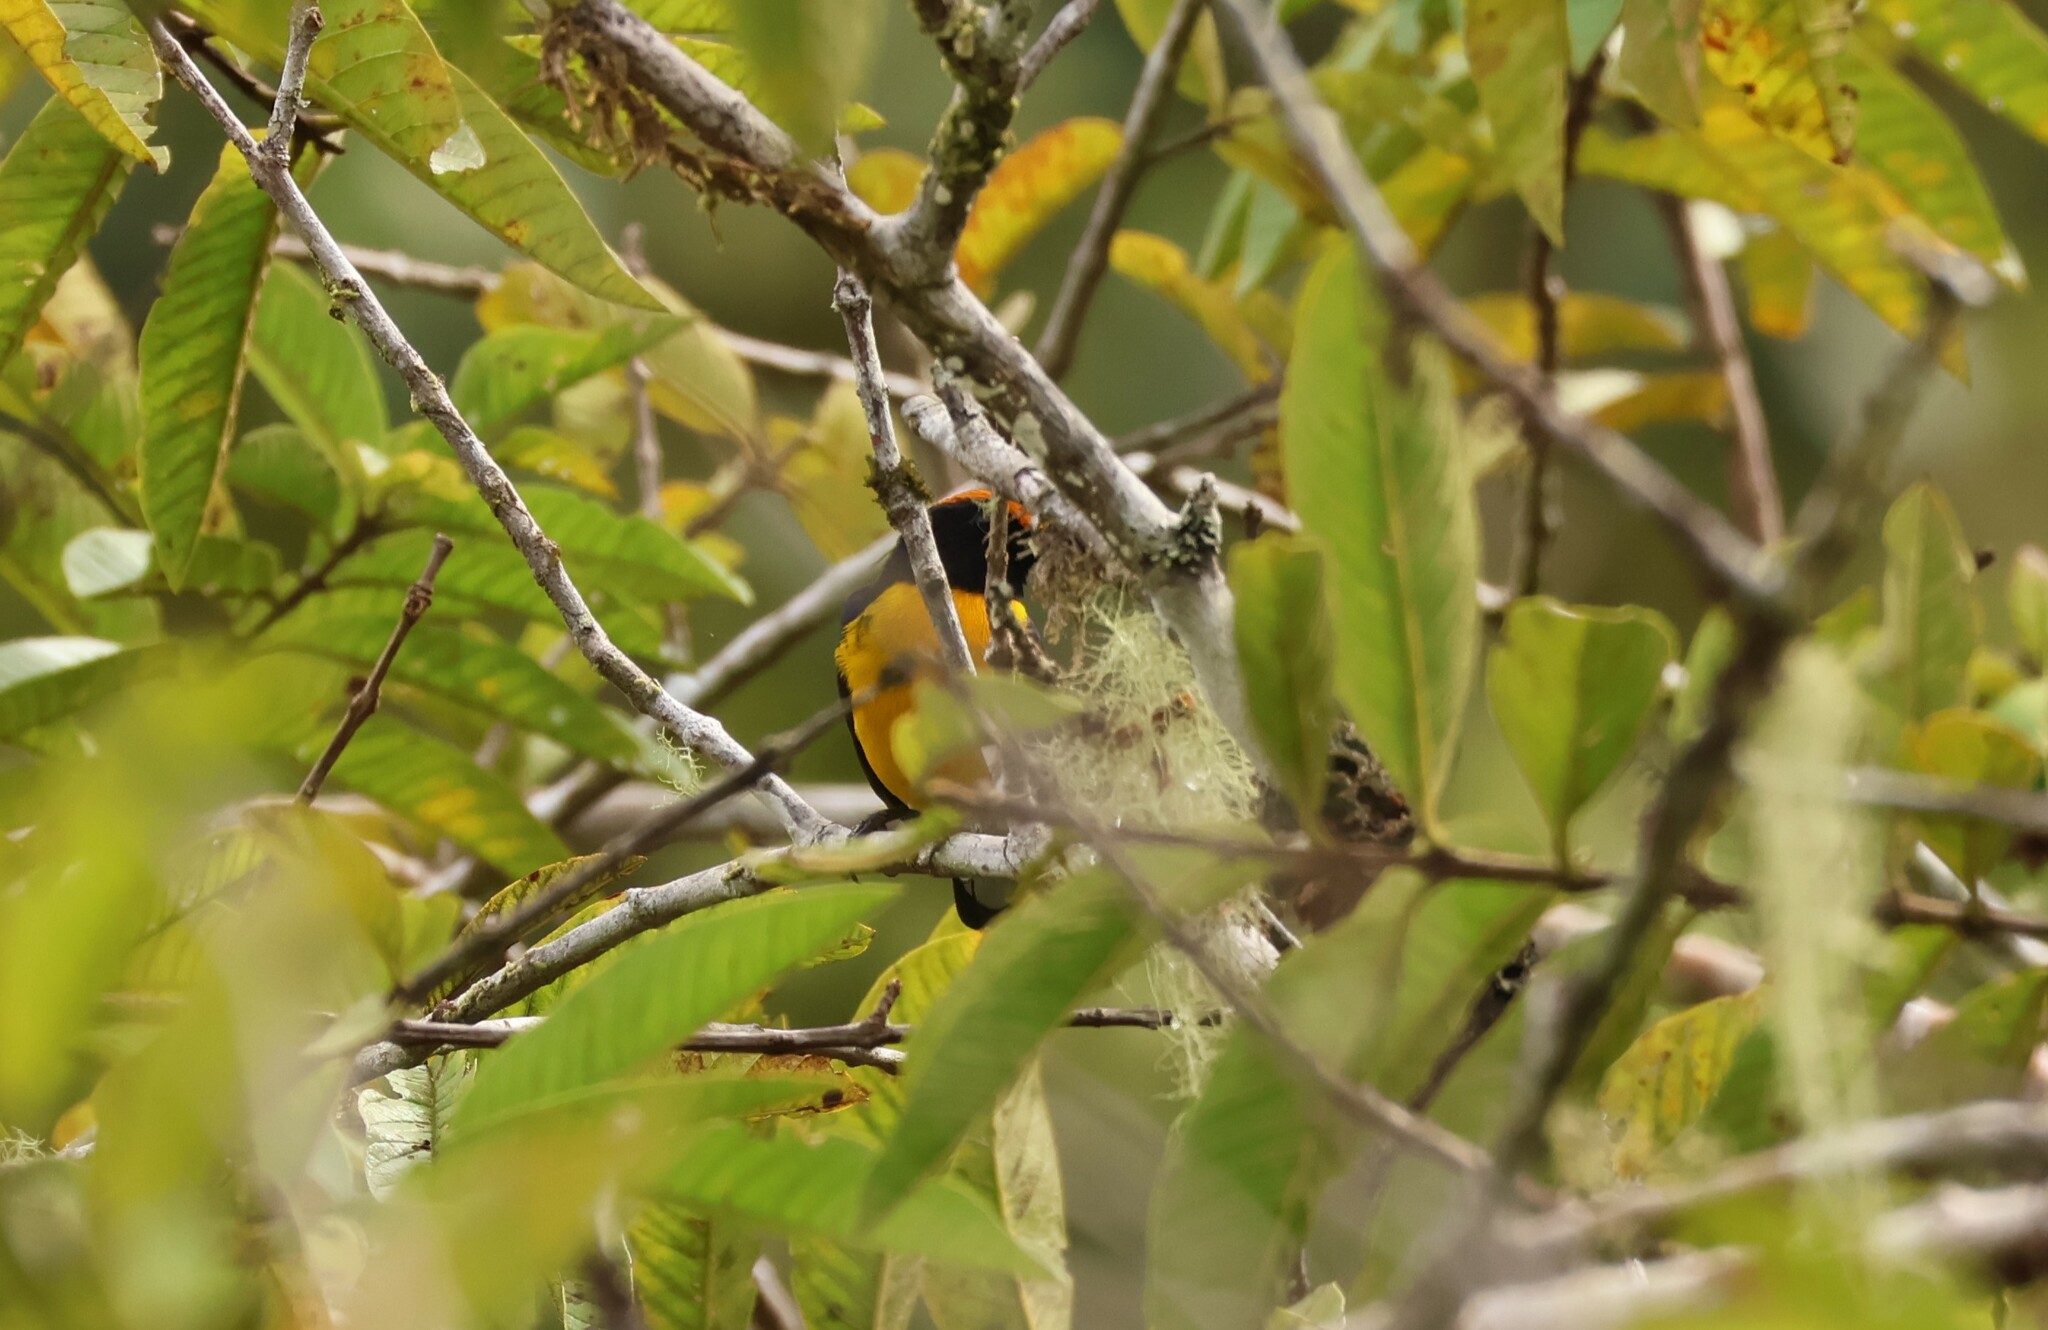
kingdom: Animalia
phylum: Chordata
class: Aves
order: Passeriformes
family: Fringillidae
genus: Euphonia
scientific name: Euphonia anneae
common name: Tawny-capped euphonia
